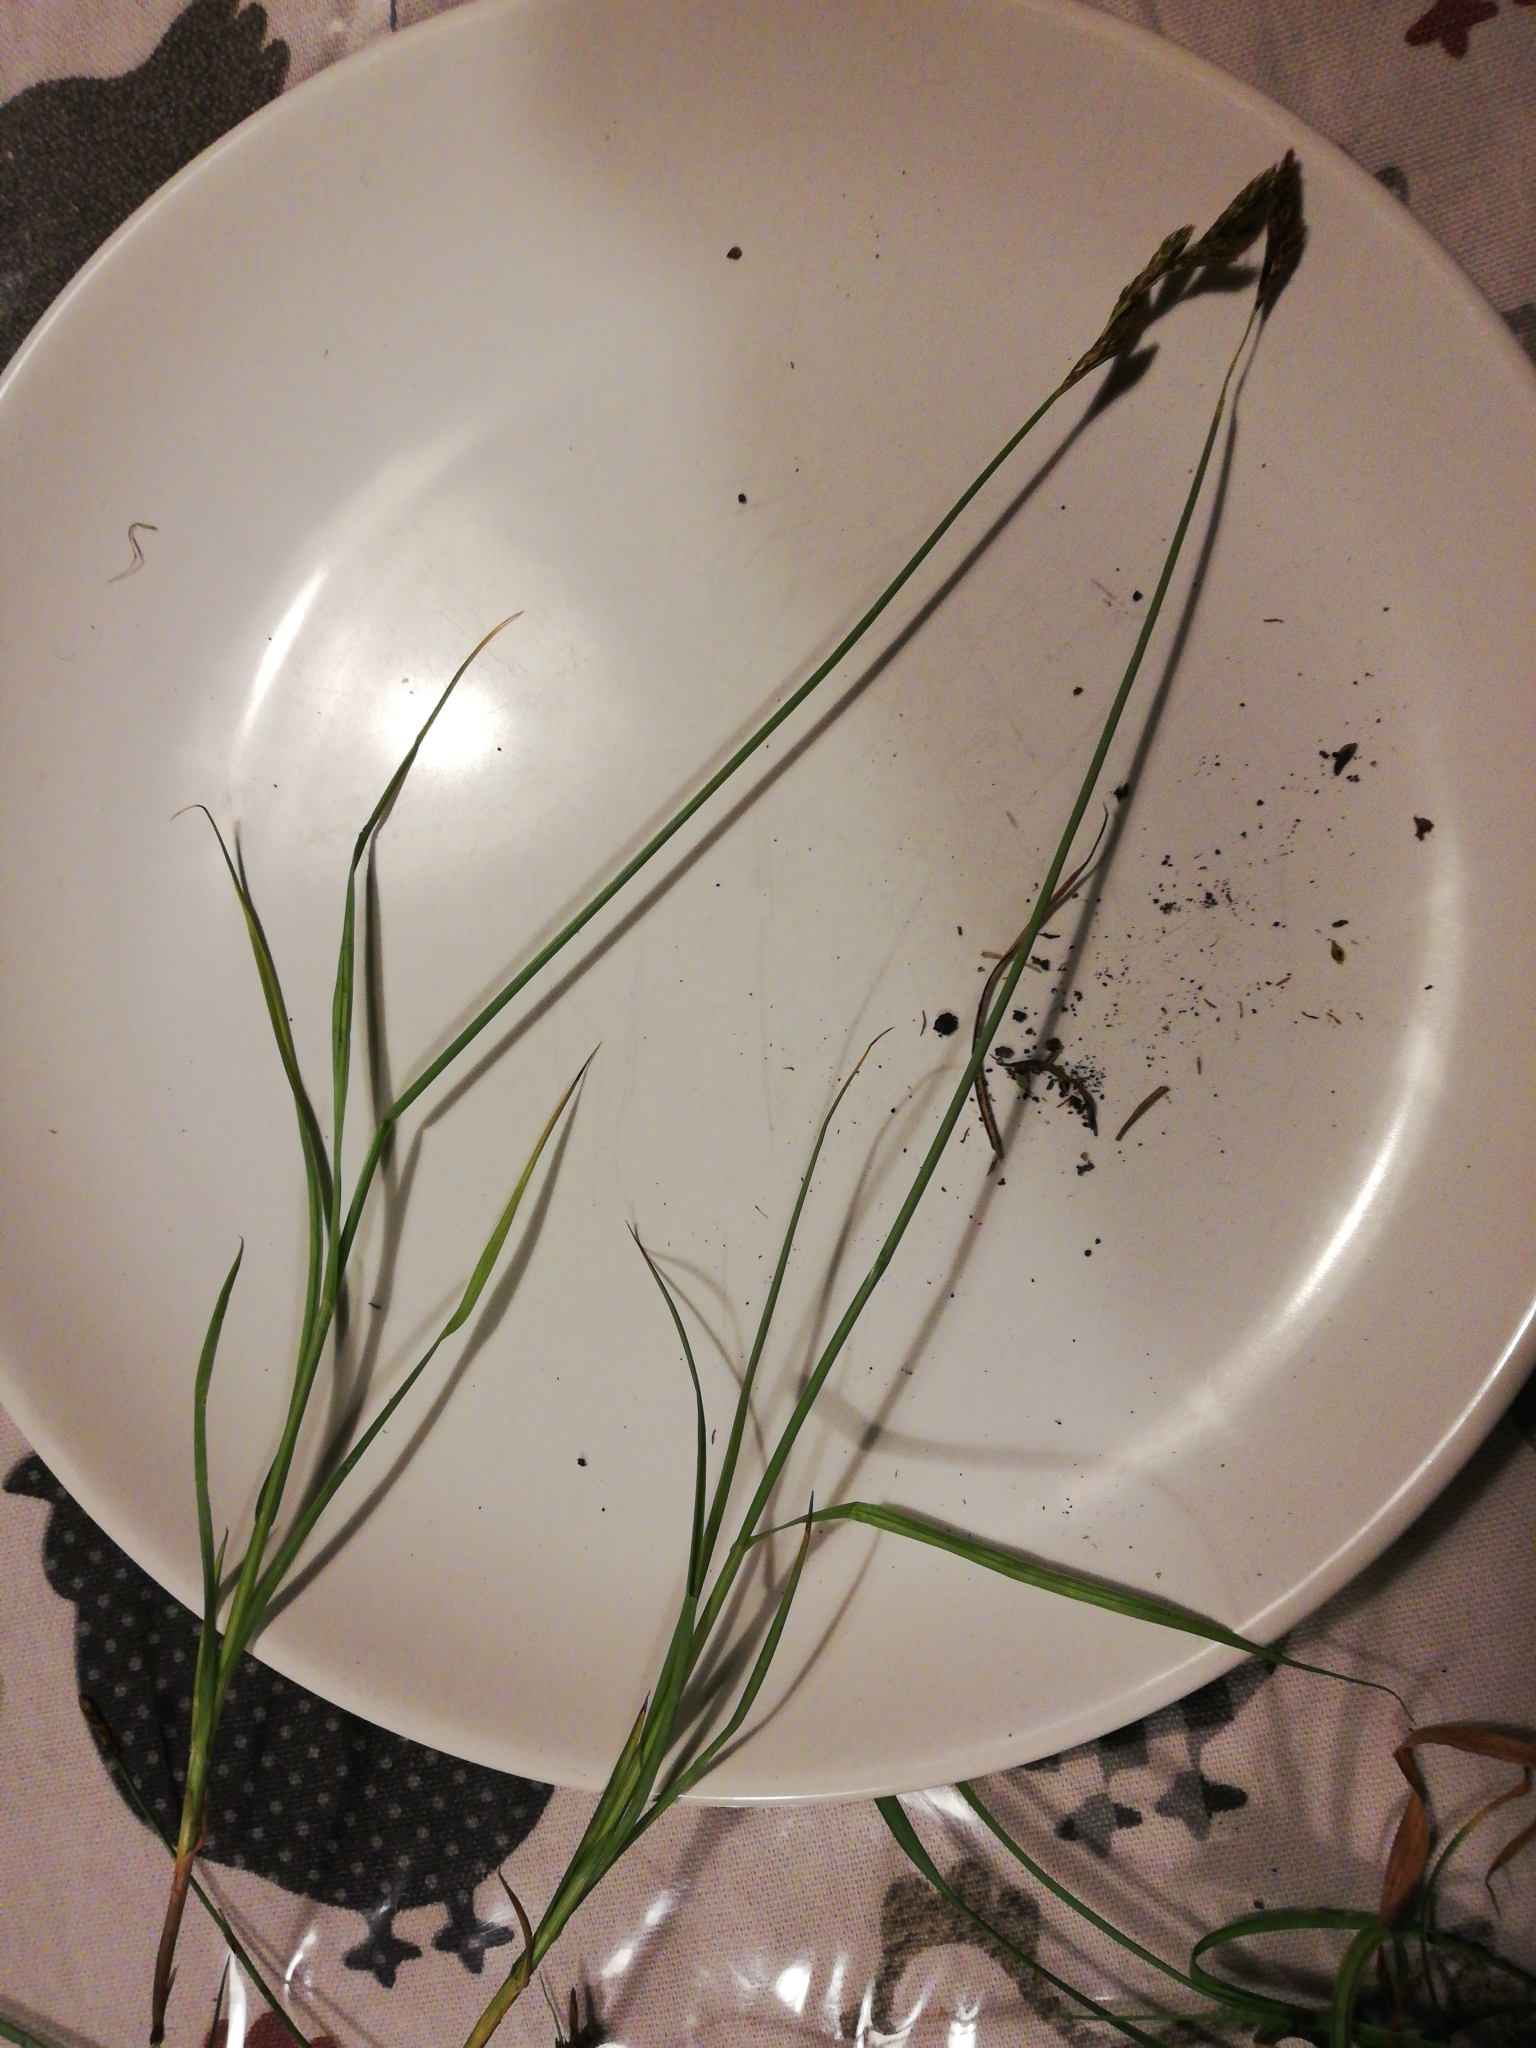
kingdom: Plantae
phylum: Tracheophyta
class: Liliopsida
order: Poales
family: Cyperaceae
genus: Carex
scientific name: Carex leporina
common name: Oval sedge
